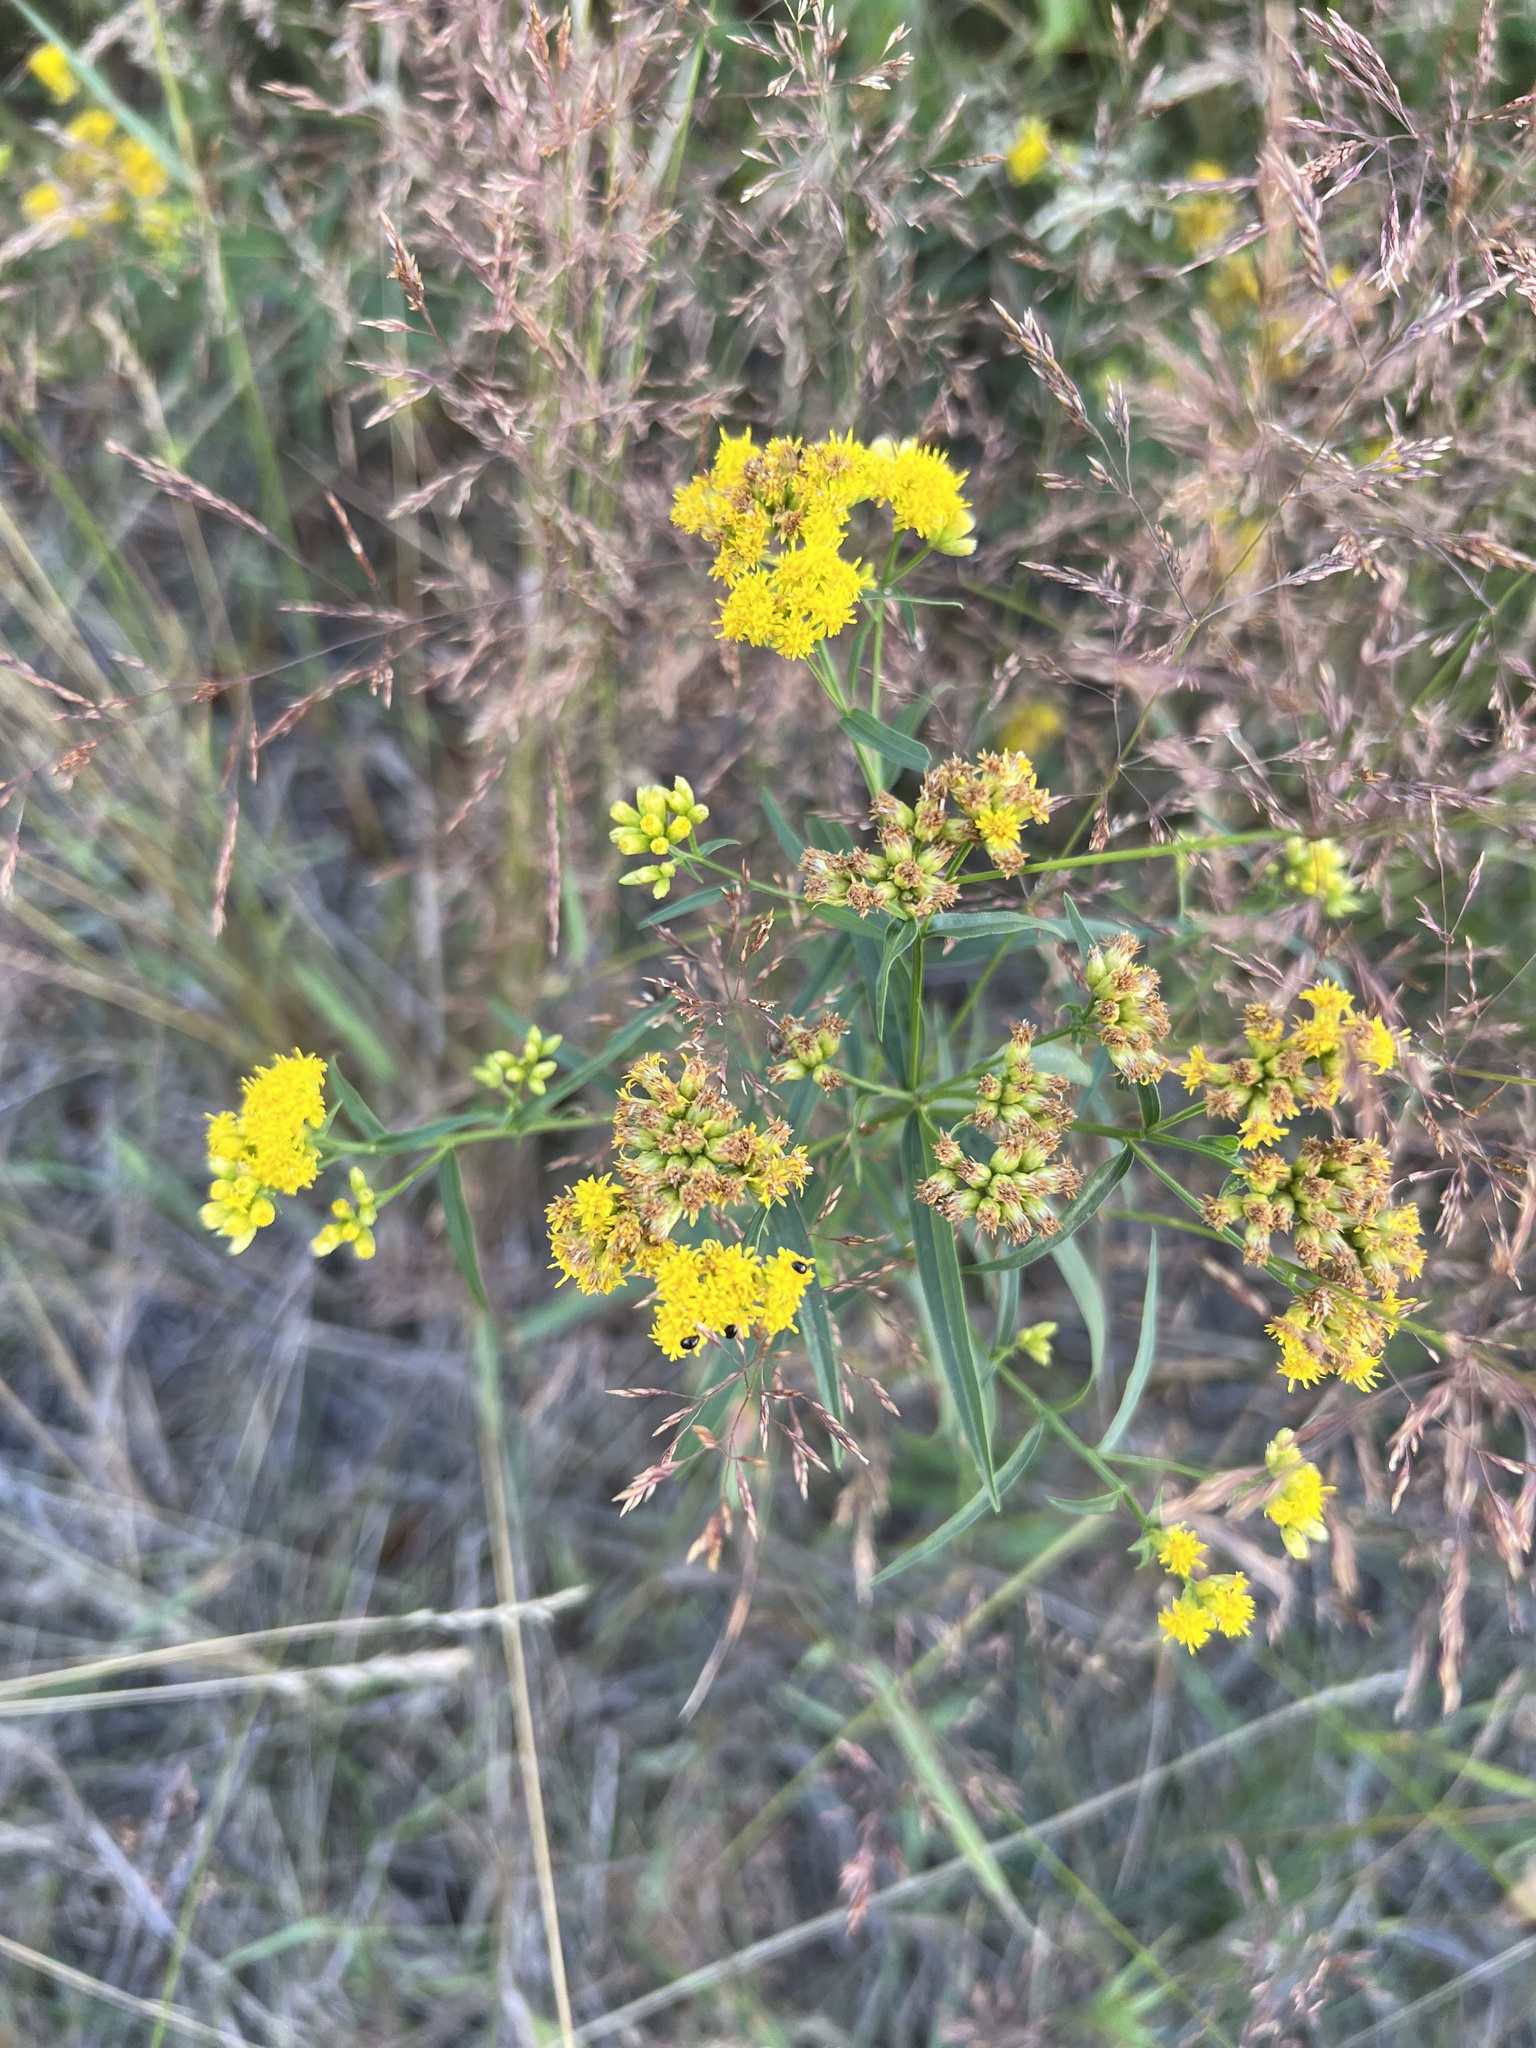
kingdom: Plantae
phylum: Tracheophyta
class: Magnoliopsida
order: Asterales
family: Asteraceae
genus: Euthamia
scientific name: Euthamia graminifolia
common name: Common goldentop
